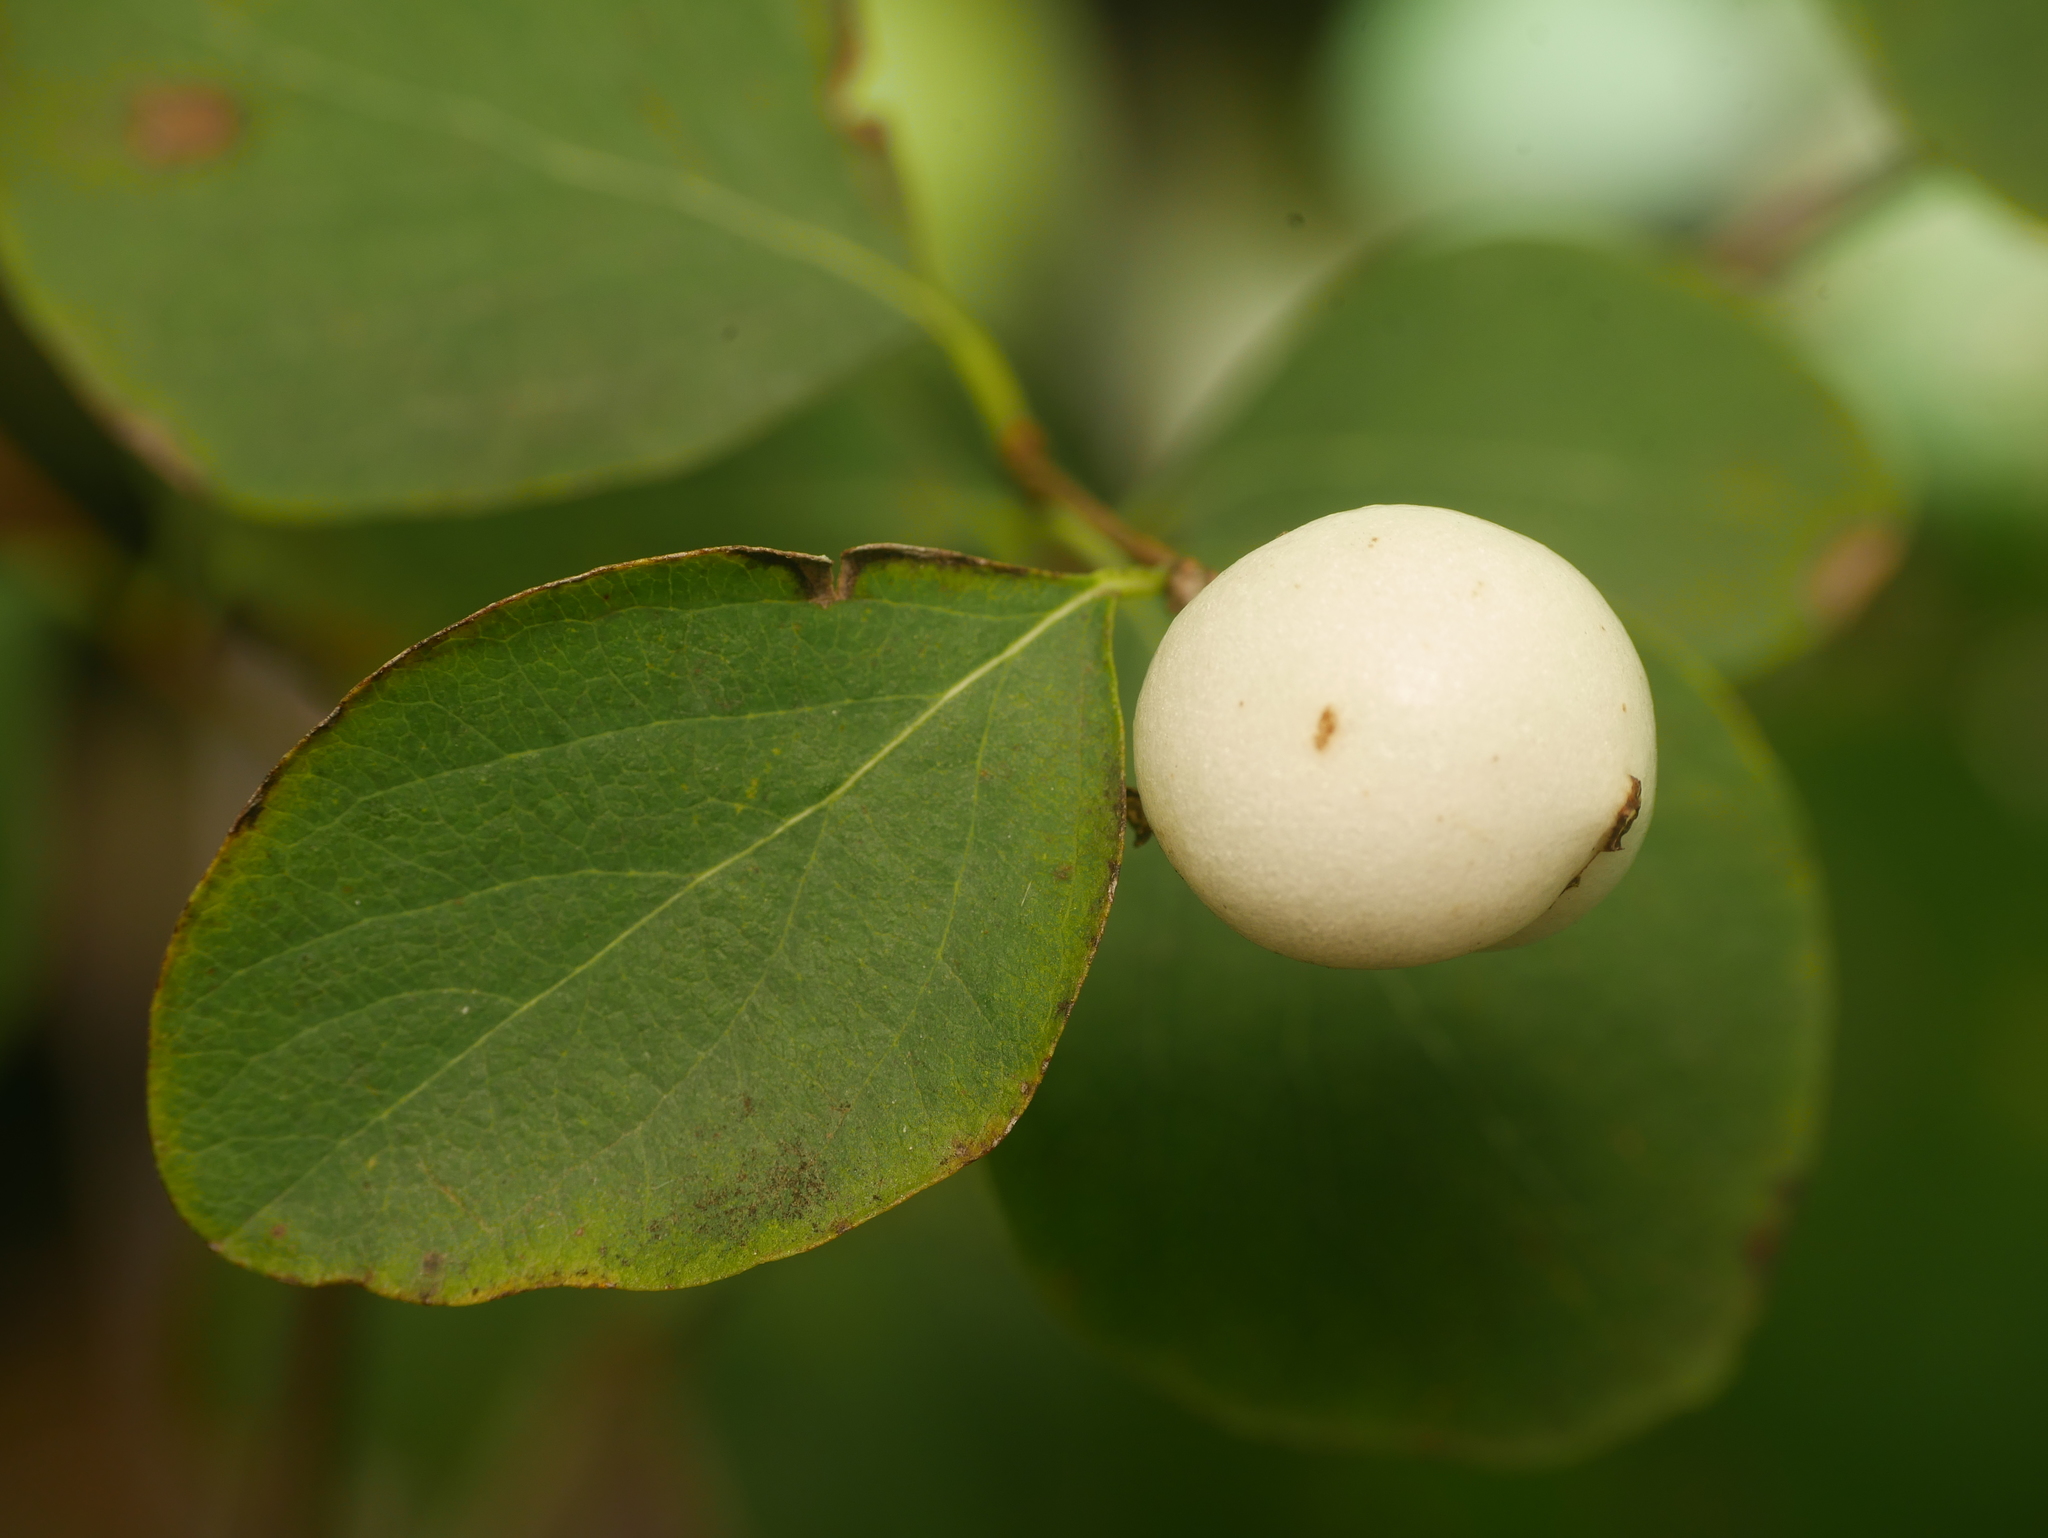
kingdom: Plantae
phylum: Tracheophyta
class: Magnoliopsida
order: Dipsacales
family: Caprifoliaceae
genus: Symphoricarpos
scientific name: Symphoricarpos albus
